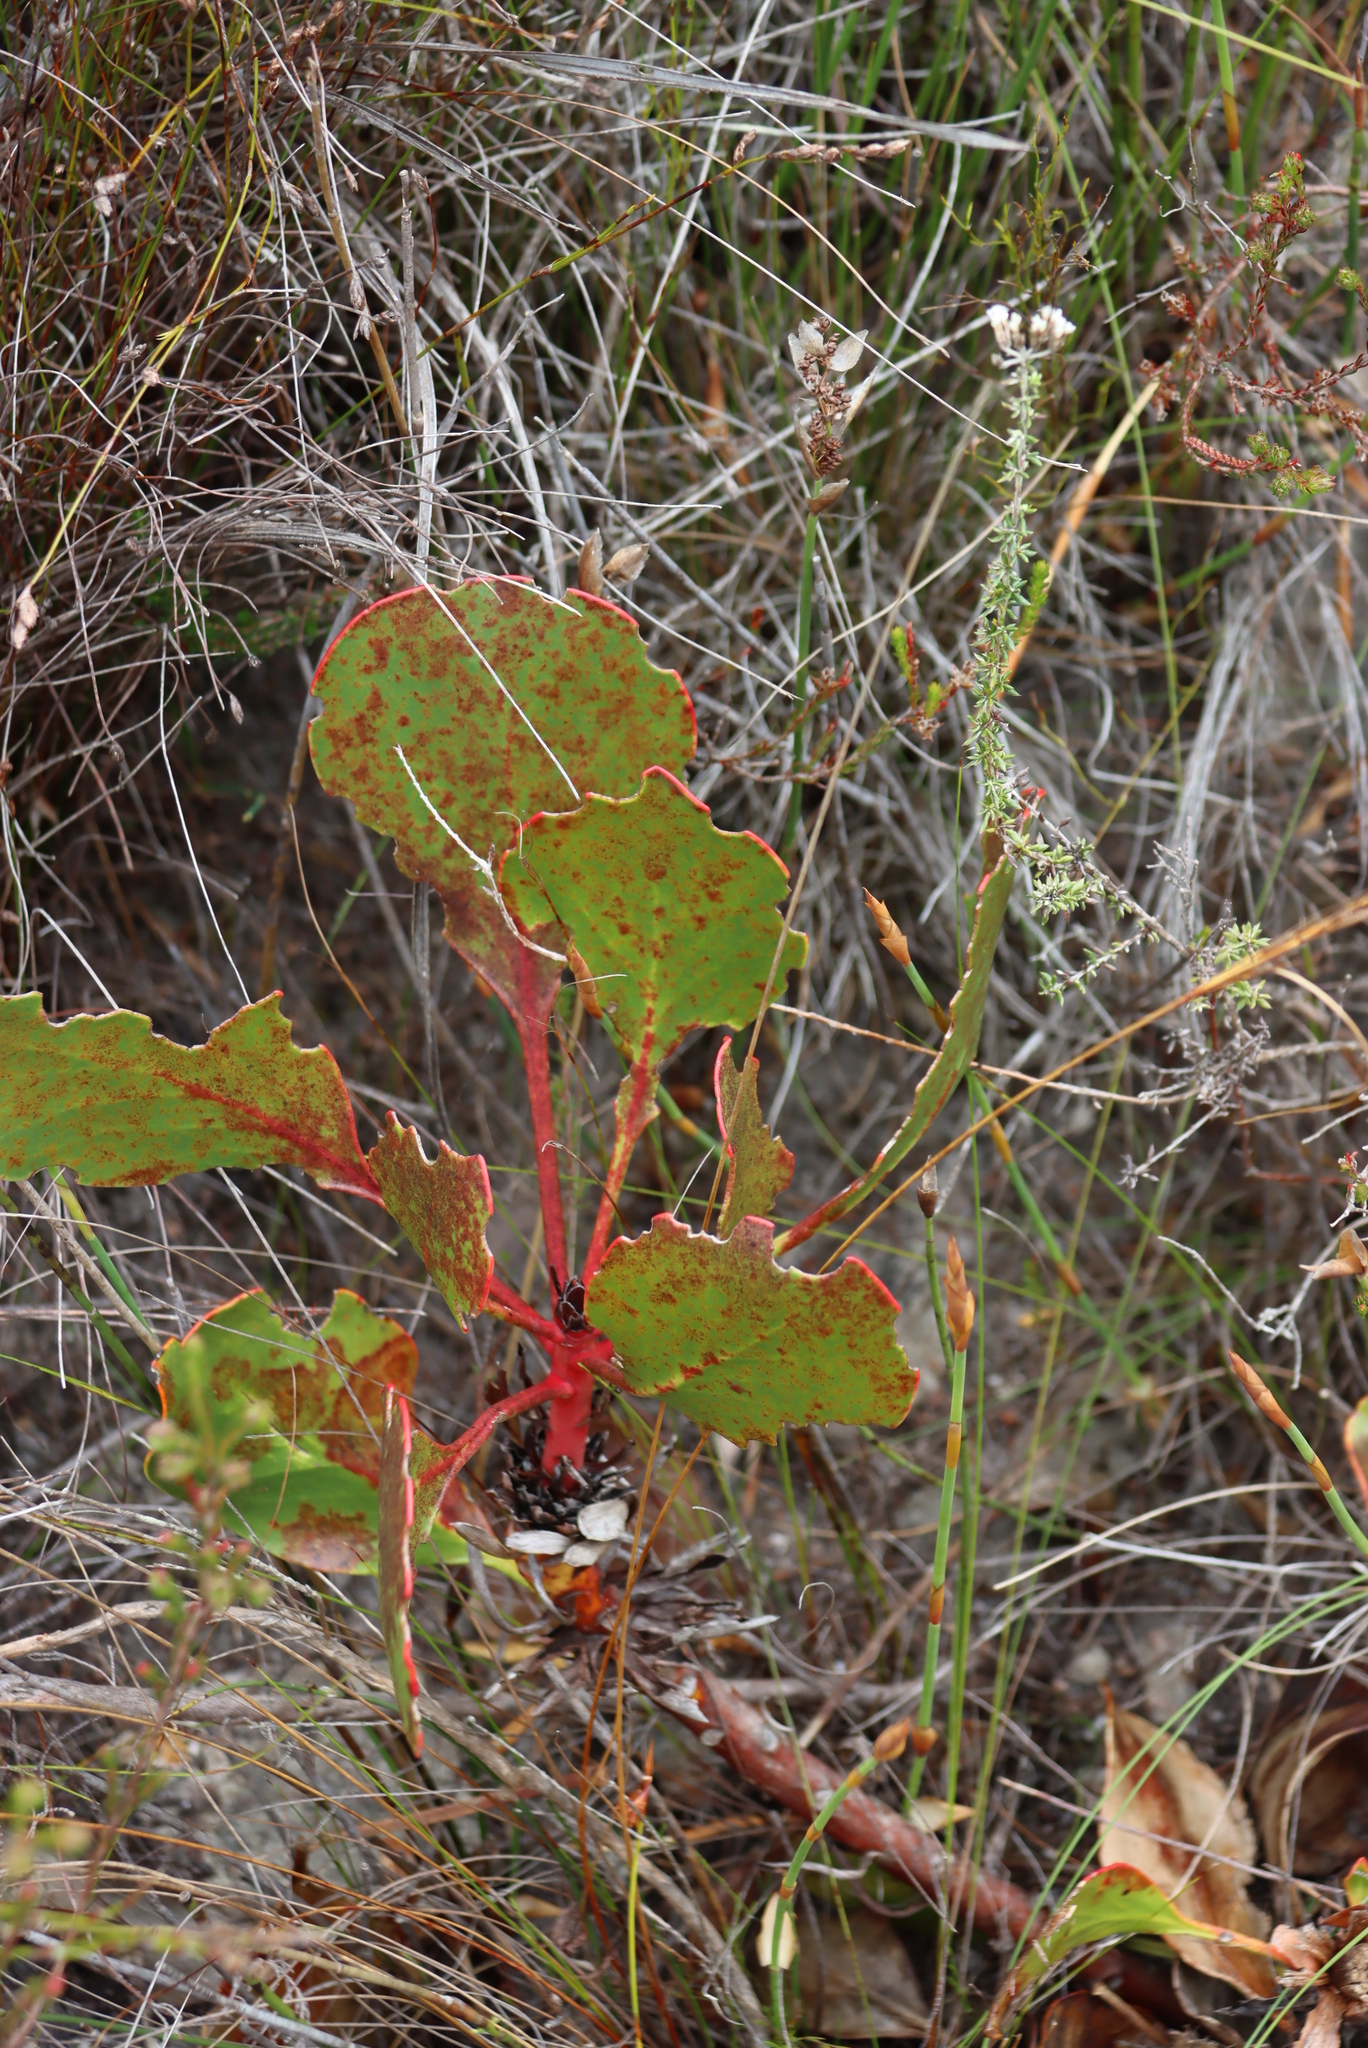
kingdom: Plantae
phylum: Tracheophyta
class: Magnoliopsida
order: Proteales
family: Proteaceae
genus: Protea
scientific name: Protea cynaroides
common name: King protea
